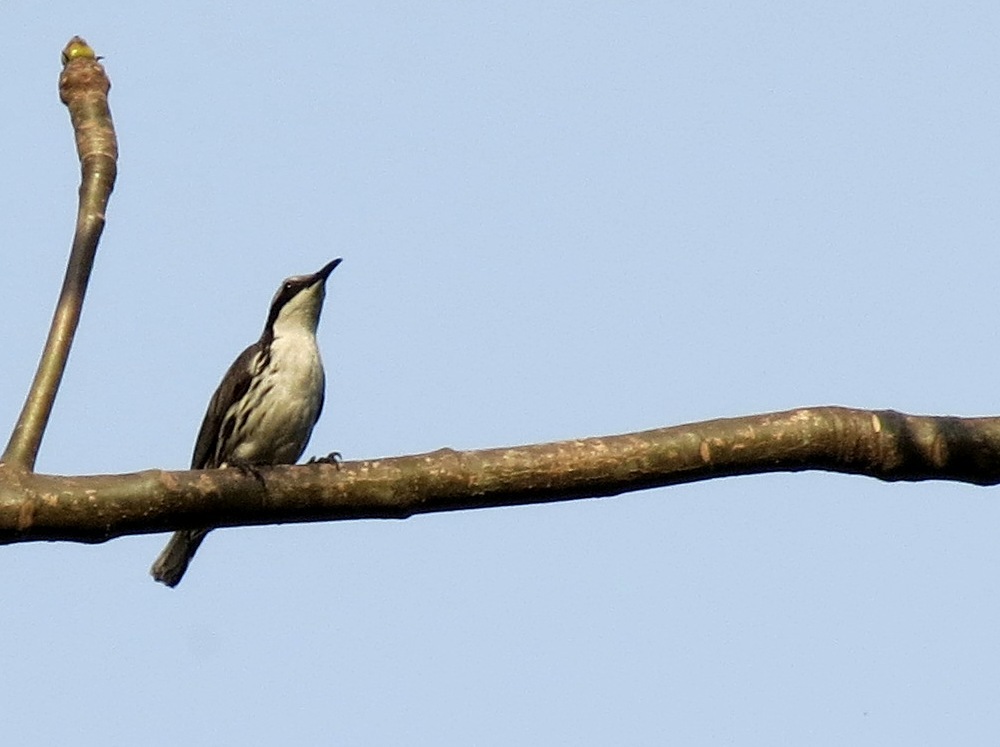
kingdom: Animalia
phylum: Chordata
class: Aves
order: Passeriformes
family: Sturnidae
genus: Rhabdornis
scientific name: Rhabdornis mystacalis
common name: Stripe-headed rhabdornis
